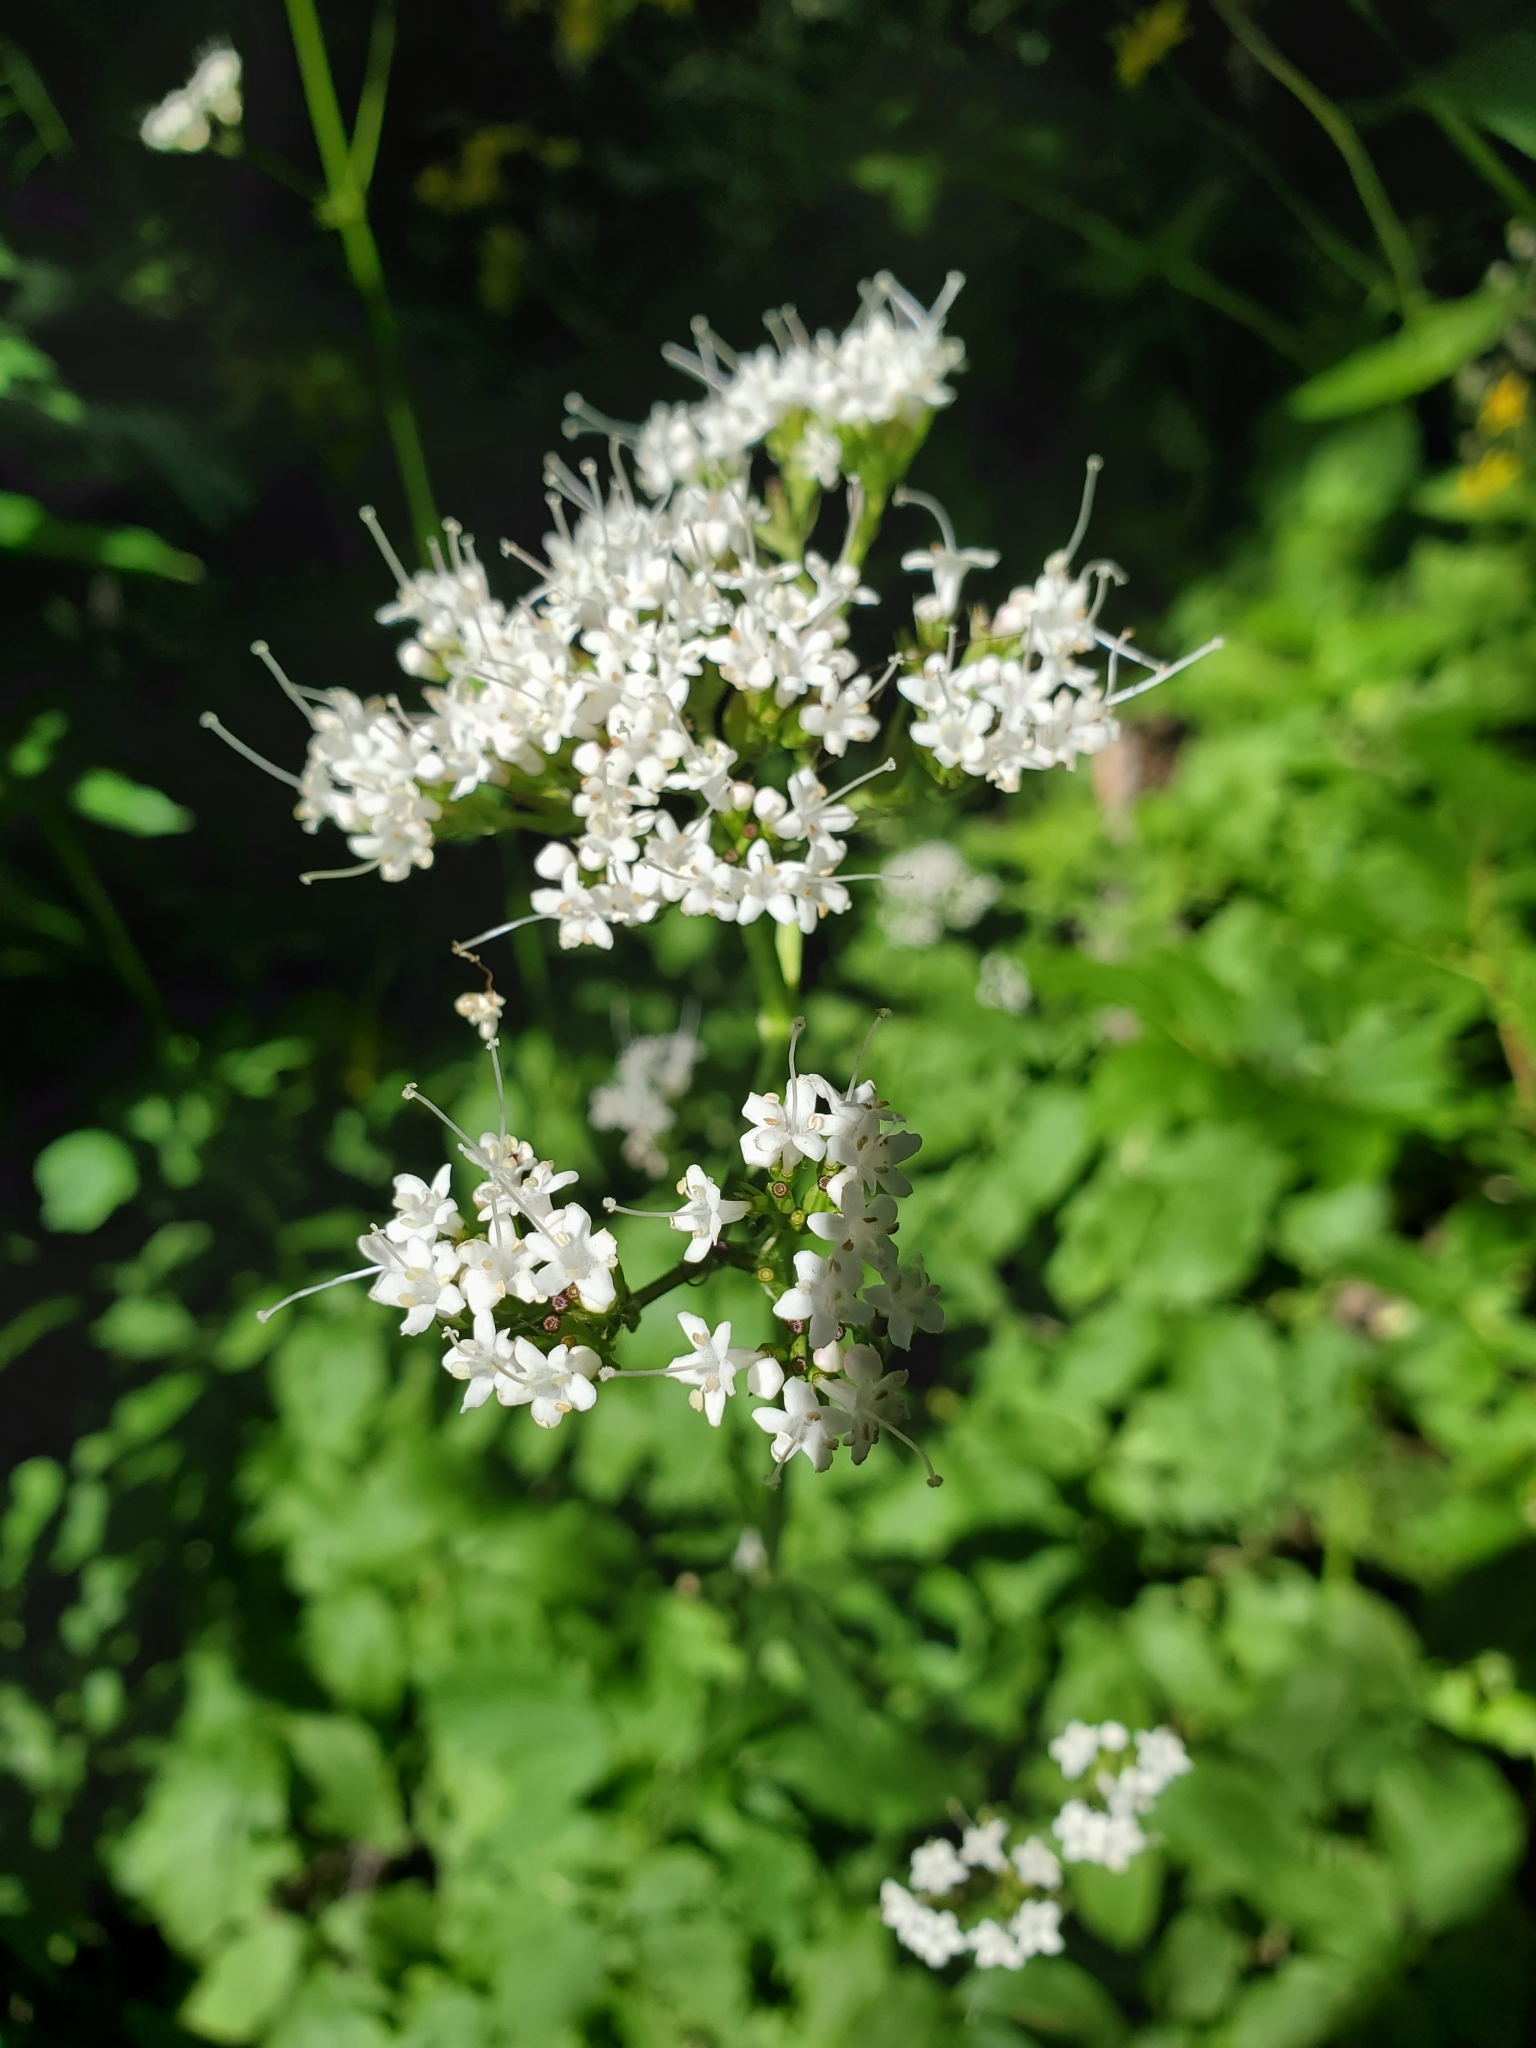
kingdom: Plantae
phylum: Tracheophyta
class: Magnoliopsida
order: Dipsacales
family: Caprifoliaceae
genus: Valeriana
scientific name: Valeriana sitchensis
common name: Pacific valerian
